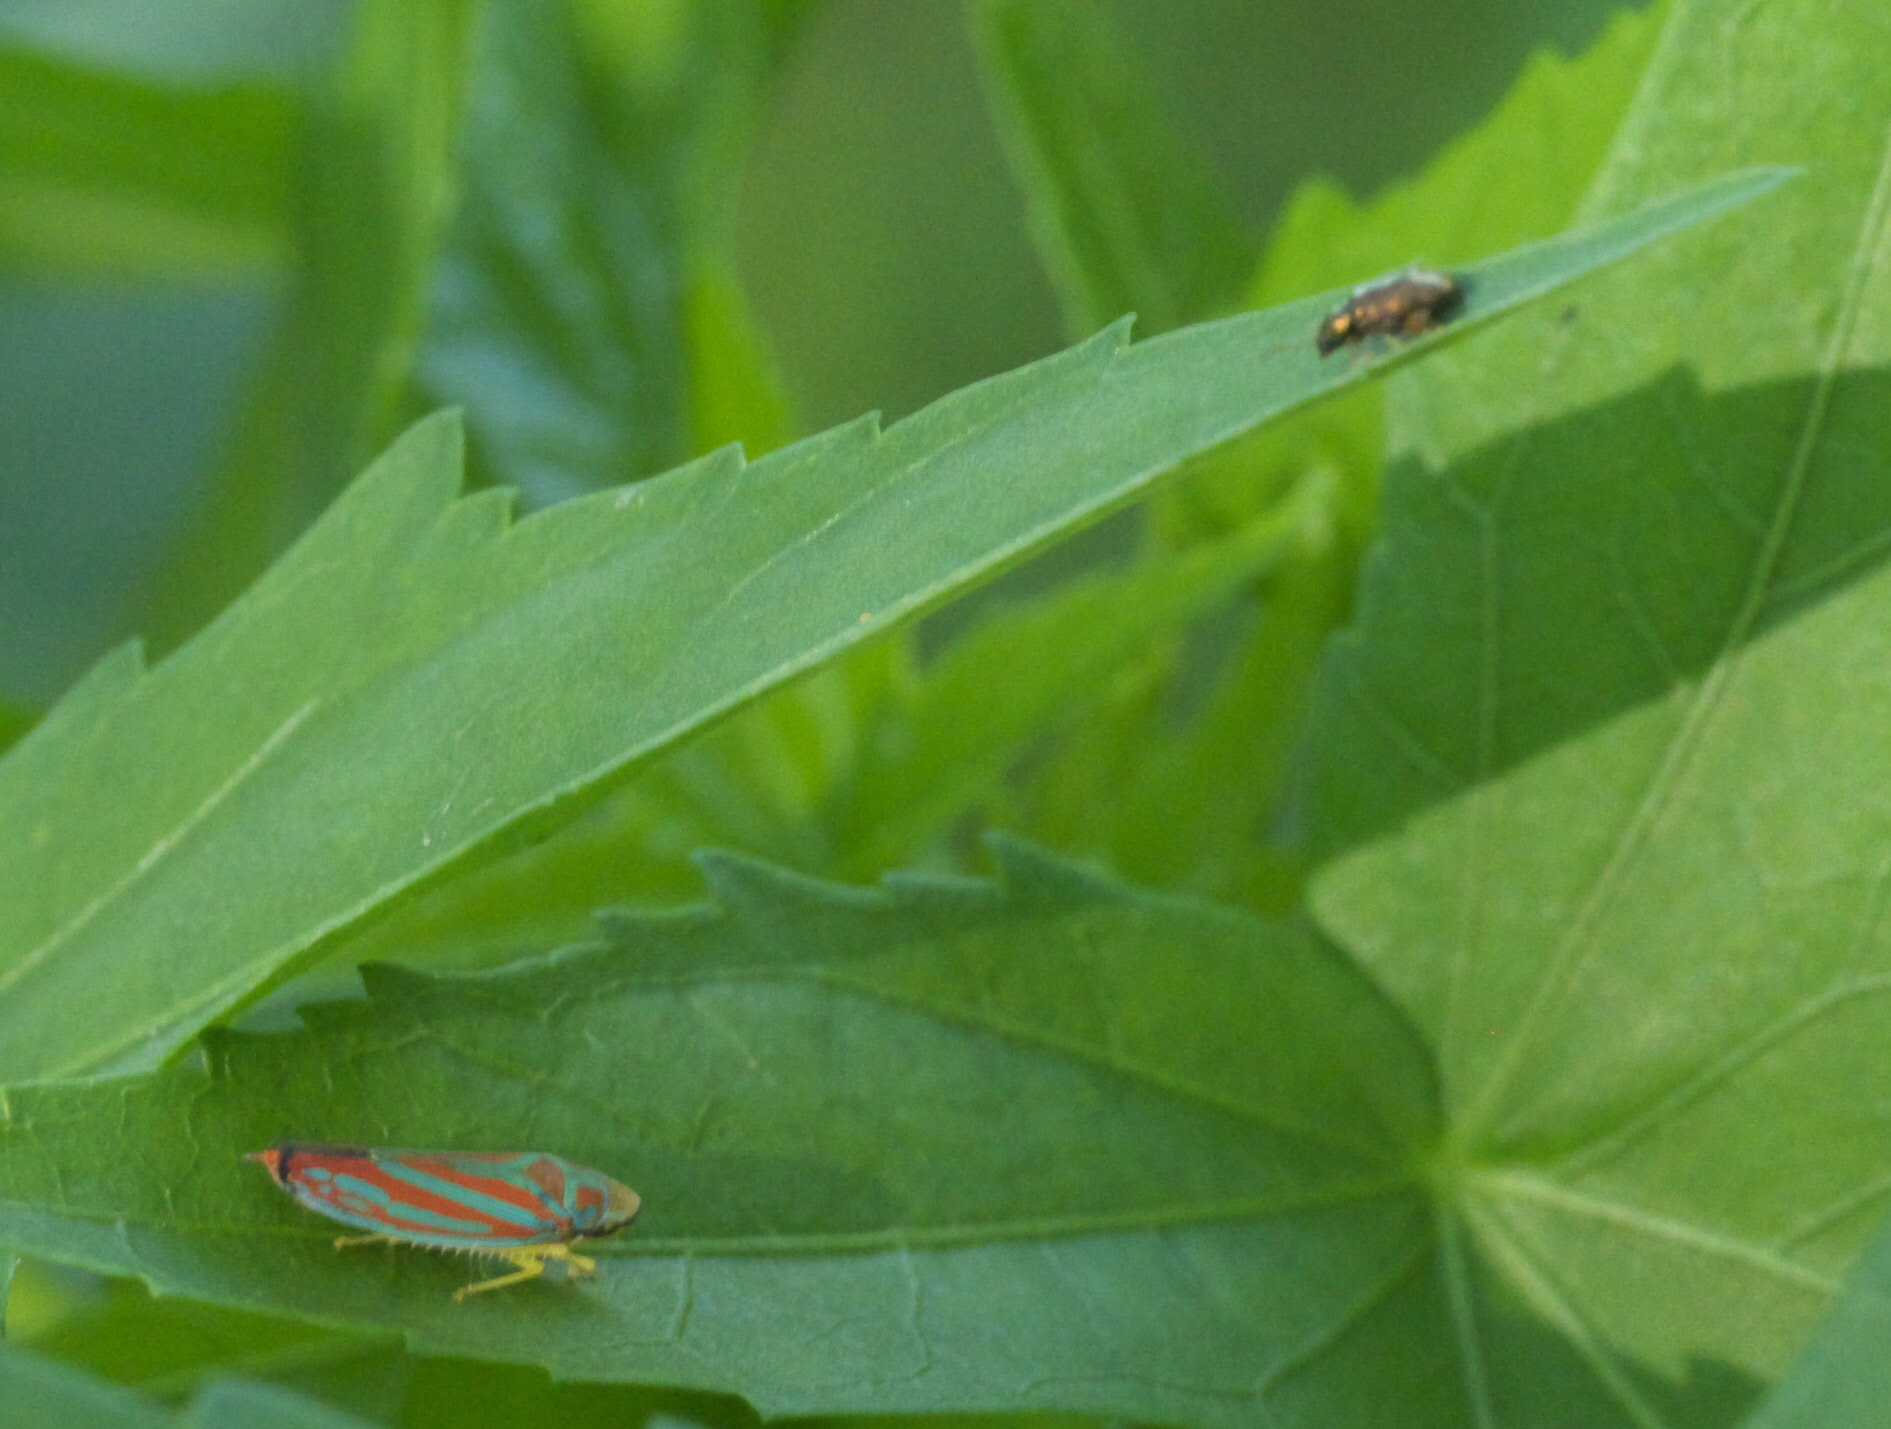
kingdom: Animalia
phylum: Arthropoda
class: Insecta
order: Hemiptera
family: Cicadellidae
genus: Graphocephala
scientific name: Graphocephala coccinea
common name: Candy-striped leafhopper
